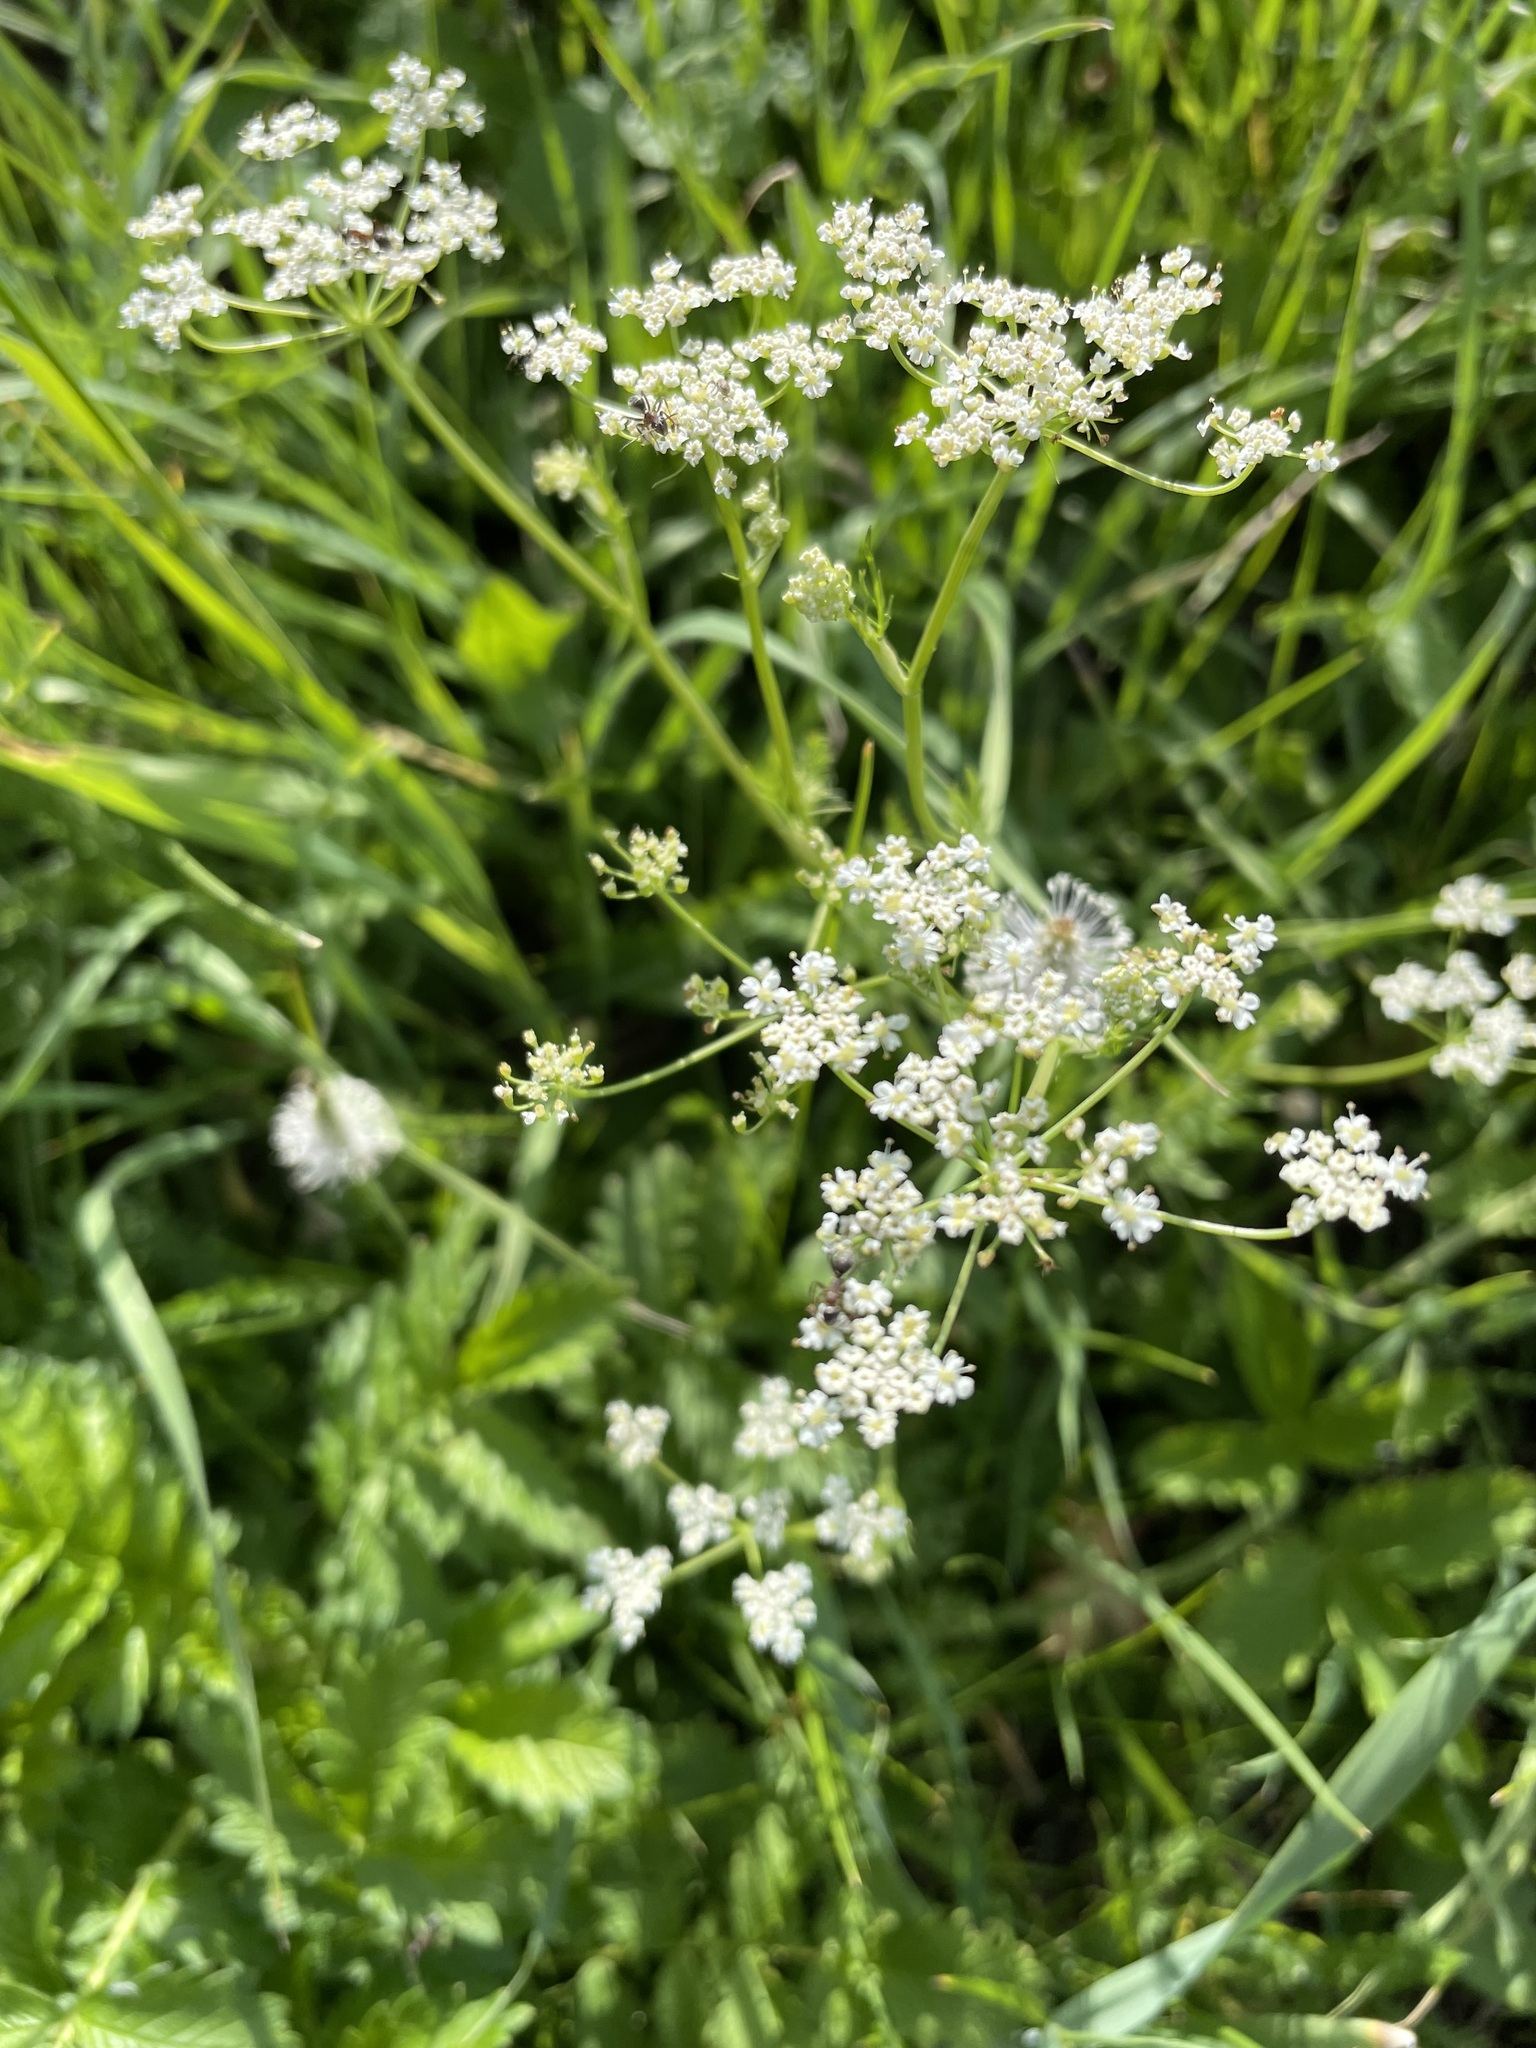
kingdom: Plantae
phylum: Tracheophyta
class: Magnoliopsida
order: Apiales
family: Apiaceae
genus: Carum
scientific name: Carum carvi
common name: Caraway
